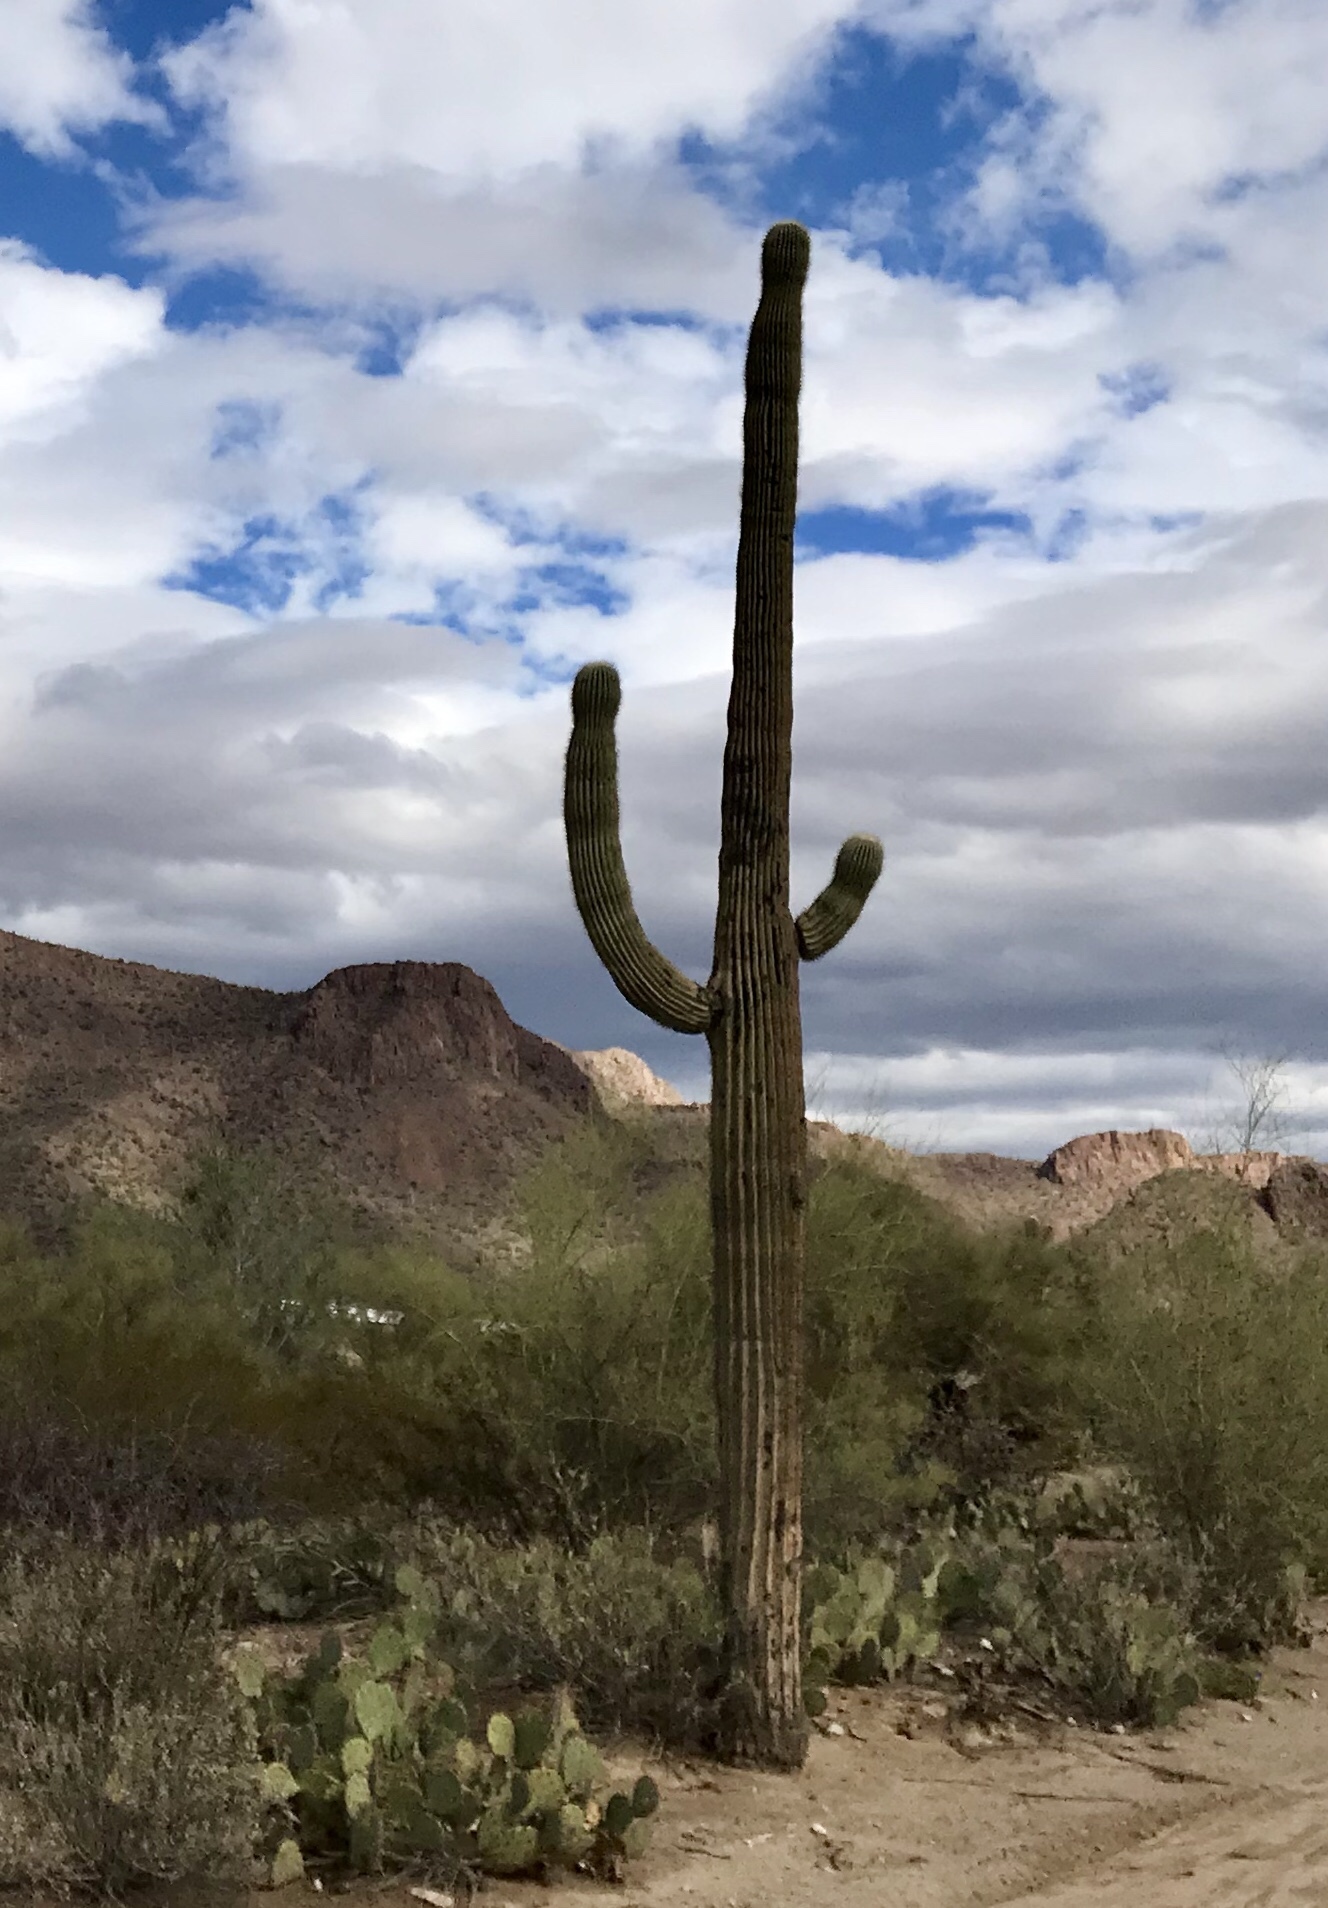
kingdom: Plantae
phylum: Tracheophyta
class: Magnoliopsida
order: Caryophyllales
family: Cactaceae
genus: Carnegiea
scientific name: Carnegiea gigantea
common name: Saguaro
